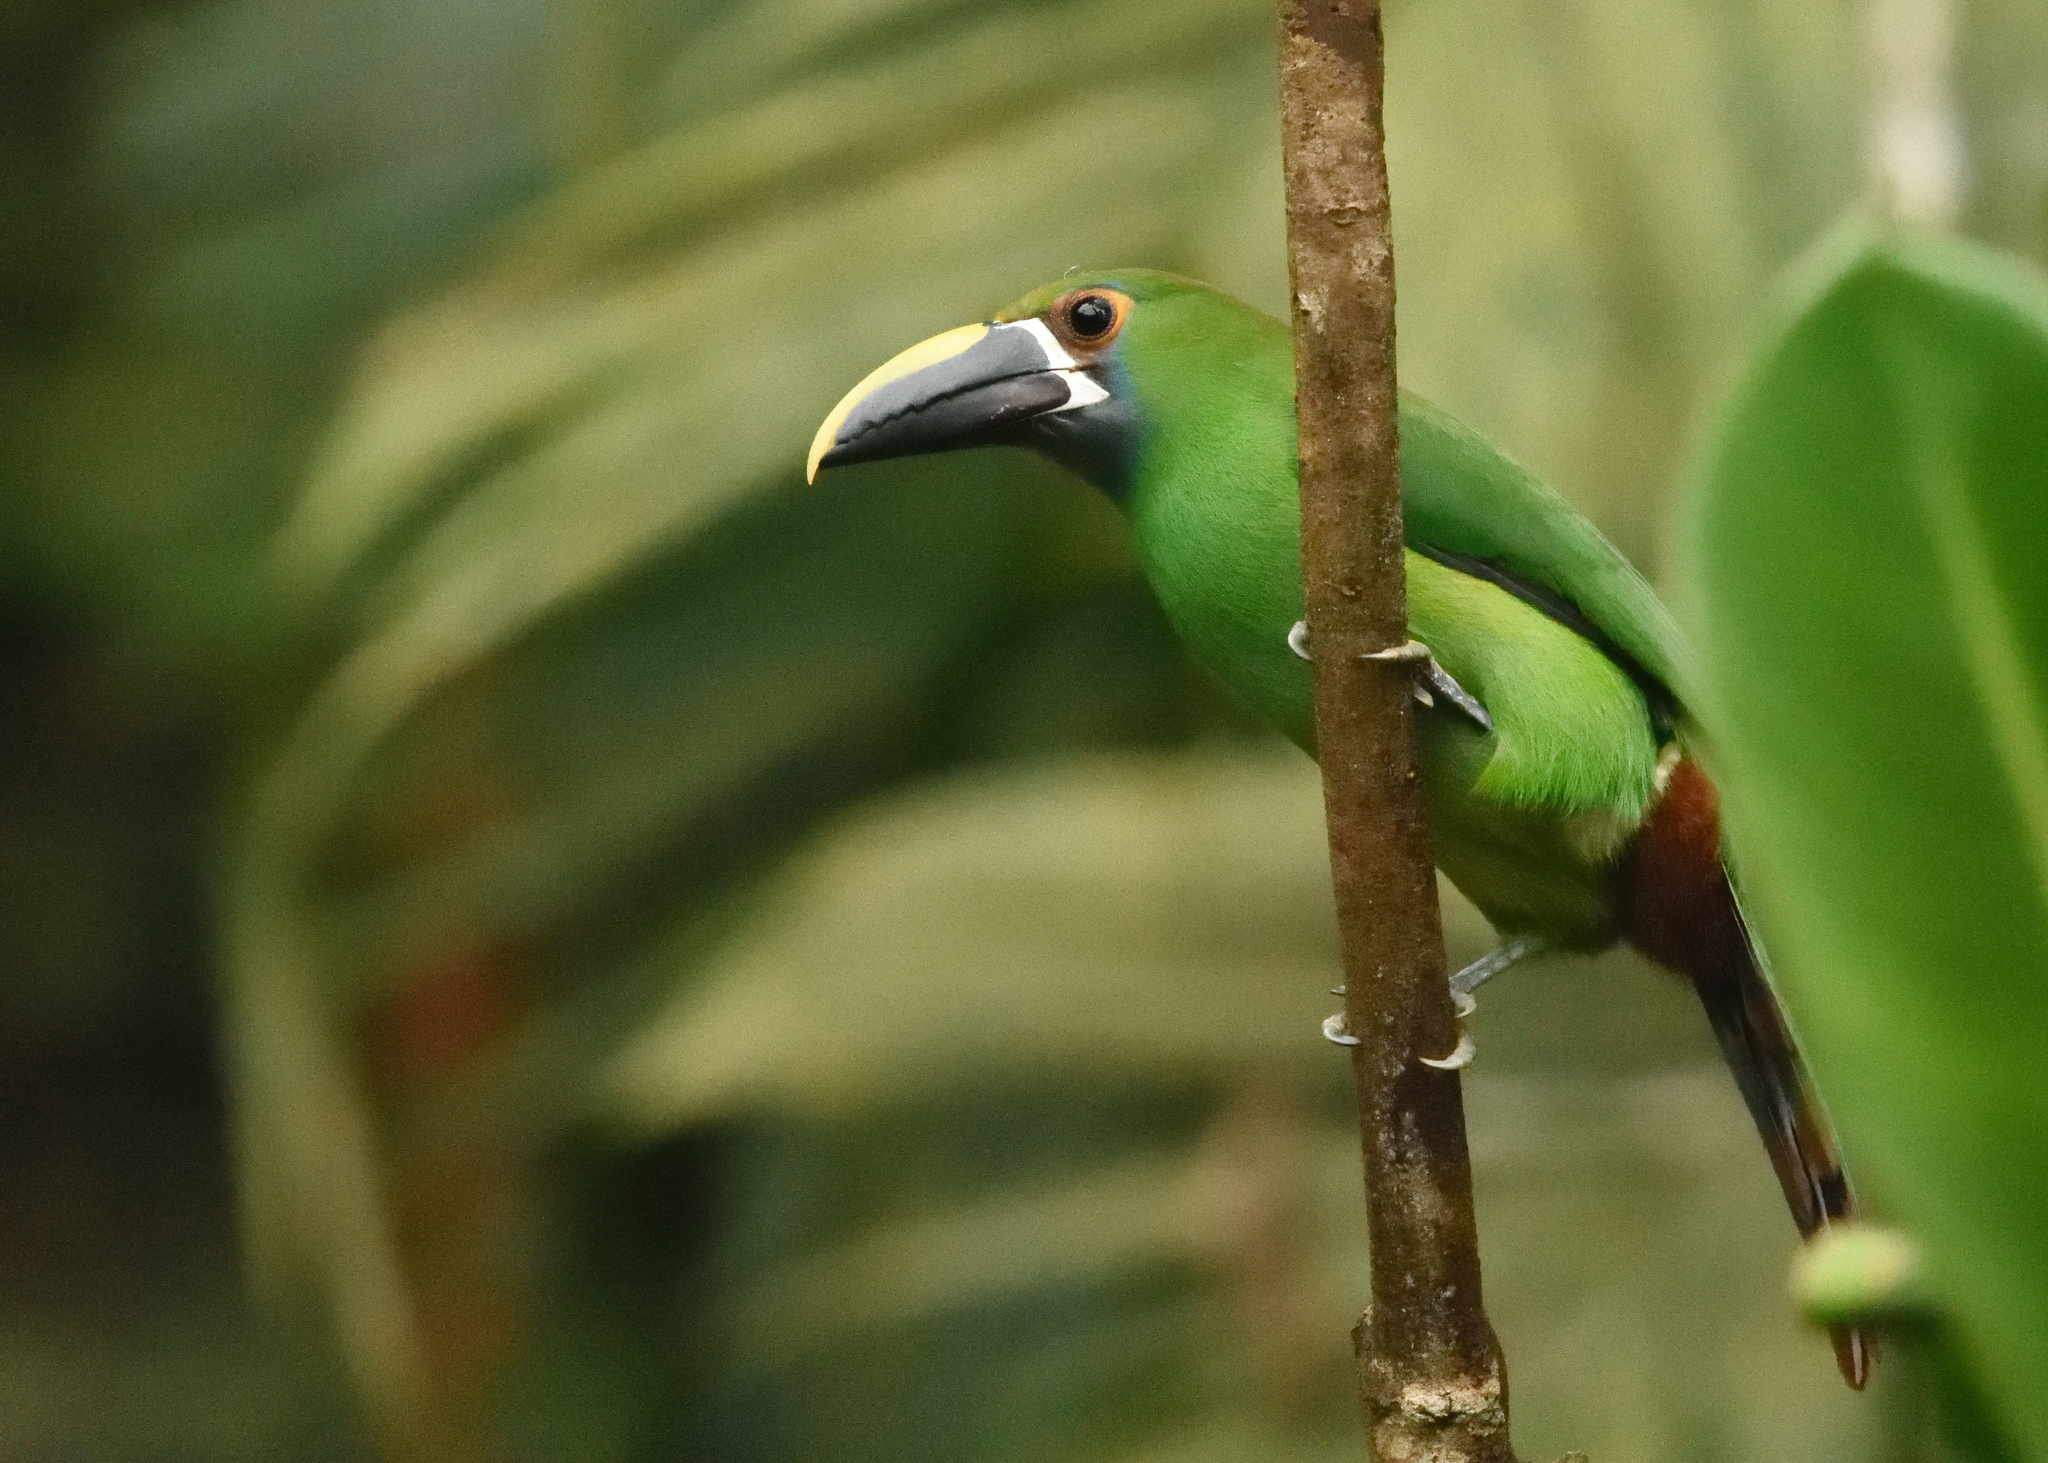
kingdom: Animalia
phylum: Chordata
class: Aves
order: Piciformes
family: Ramphastidae
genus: Aulacorhynchus
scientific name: Aulacorhynchus albivitta
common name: White-throated toucanet
